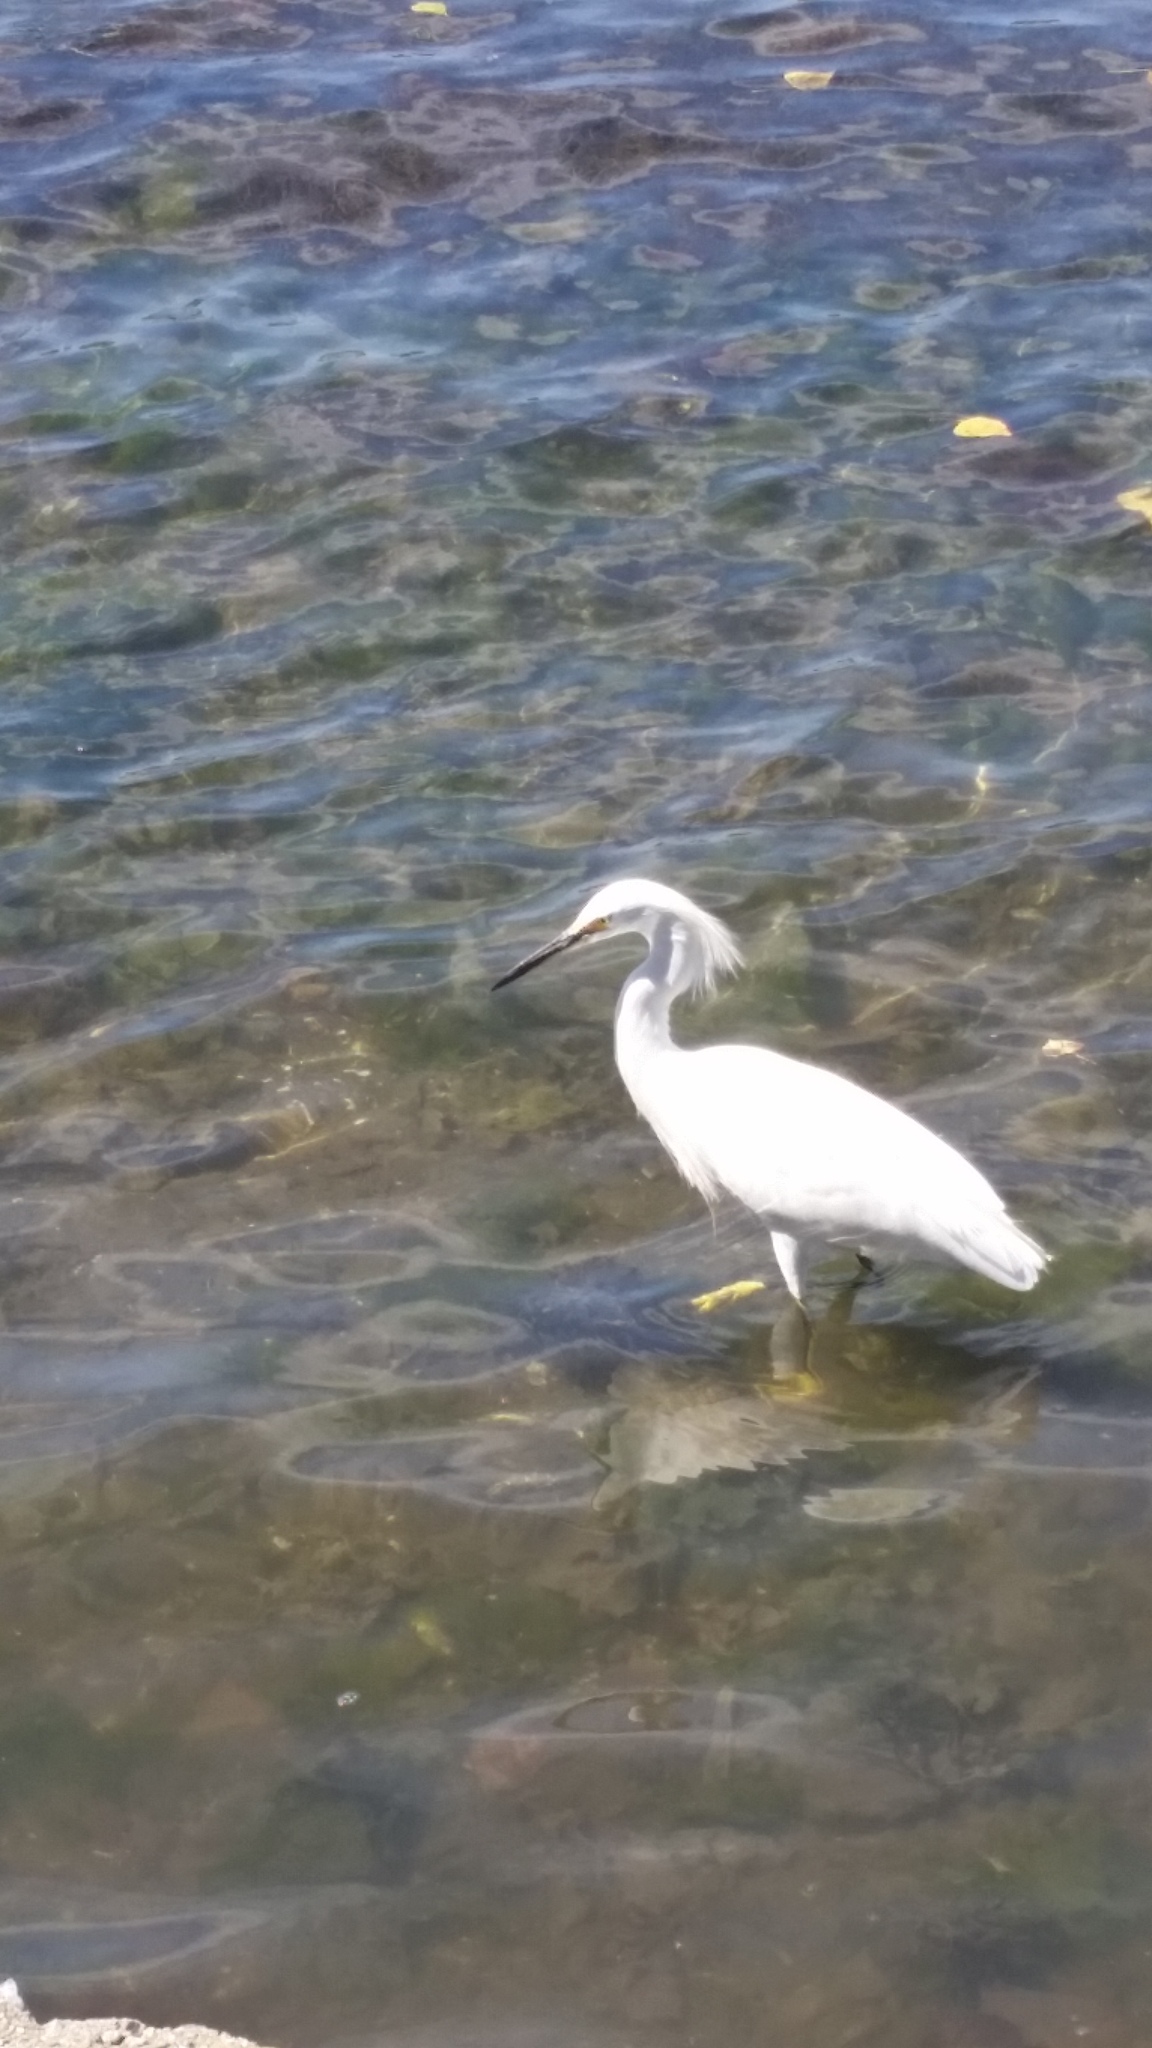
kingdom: Animalia
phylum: Chordata
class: Aves
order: Pelecaniformes
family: Ardeidae
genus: Egretta
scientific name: Egretta thula
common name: Snowy egret
